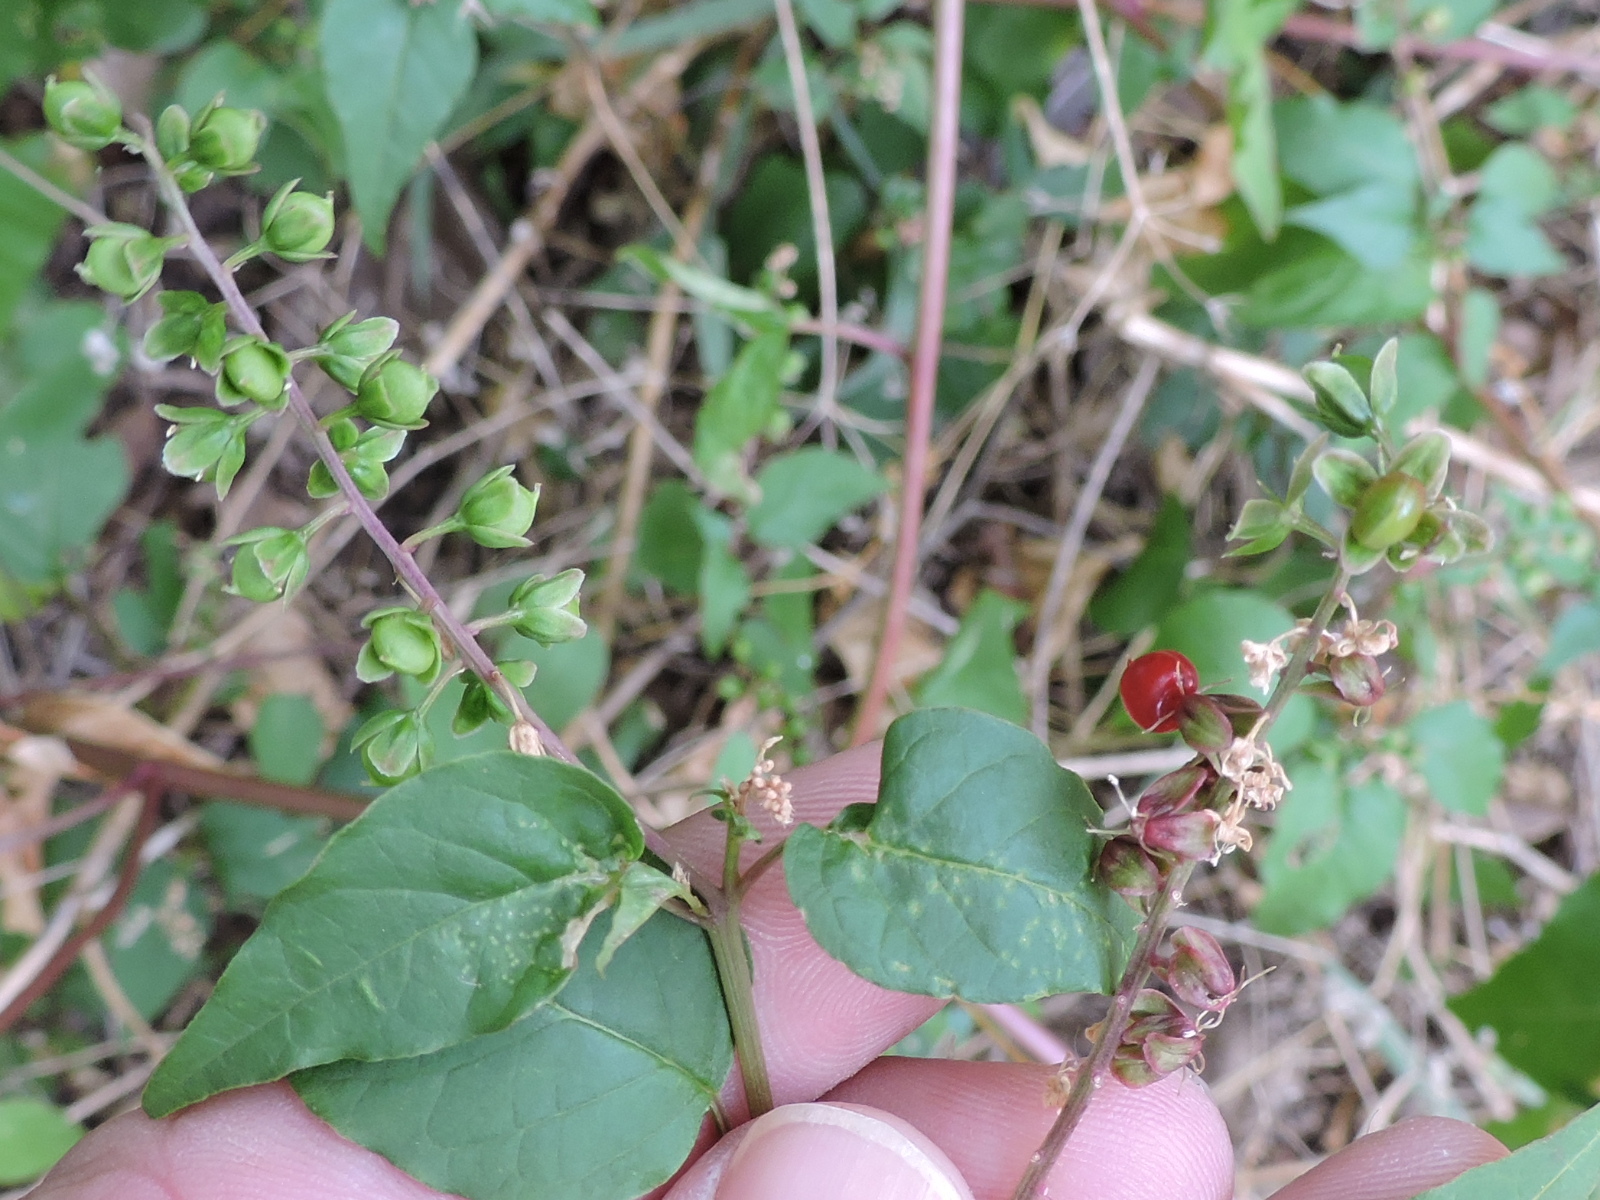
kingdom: Plantae
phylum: Tracheophyta
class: Magnoliopsida
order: Caryophyllales
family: Phytolaccaceae
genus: Rivina
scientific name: Rivina humilis
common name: Rougeplant
